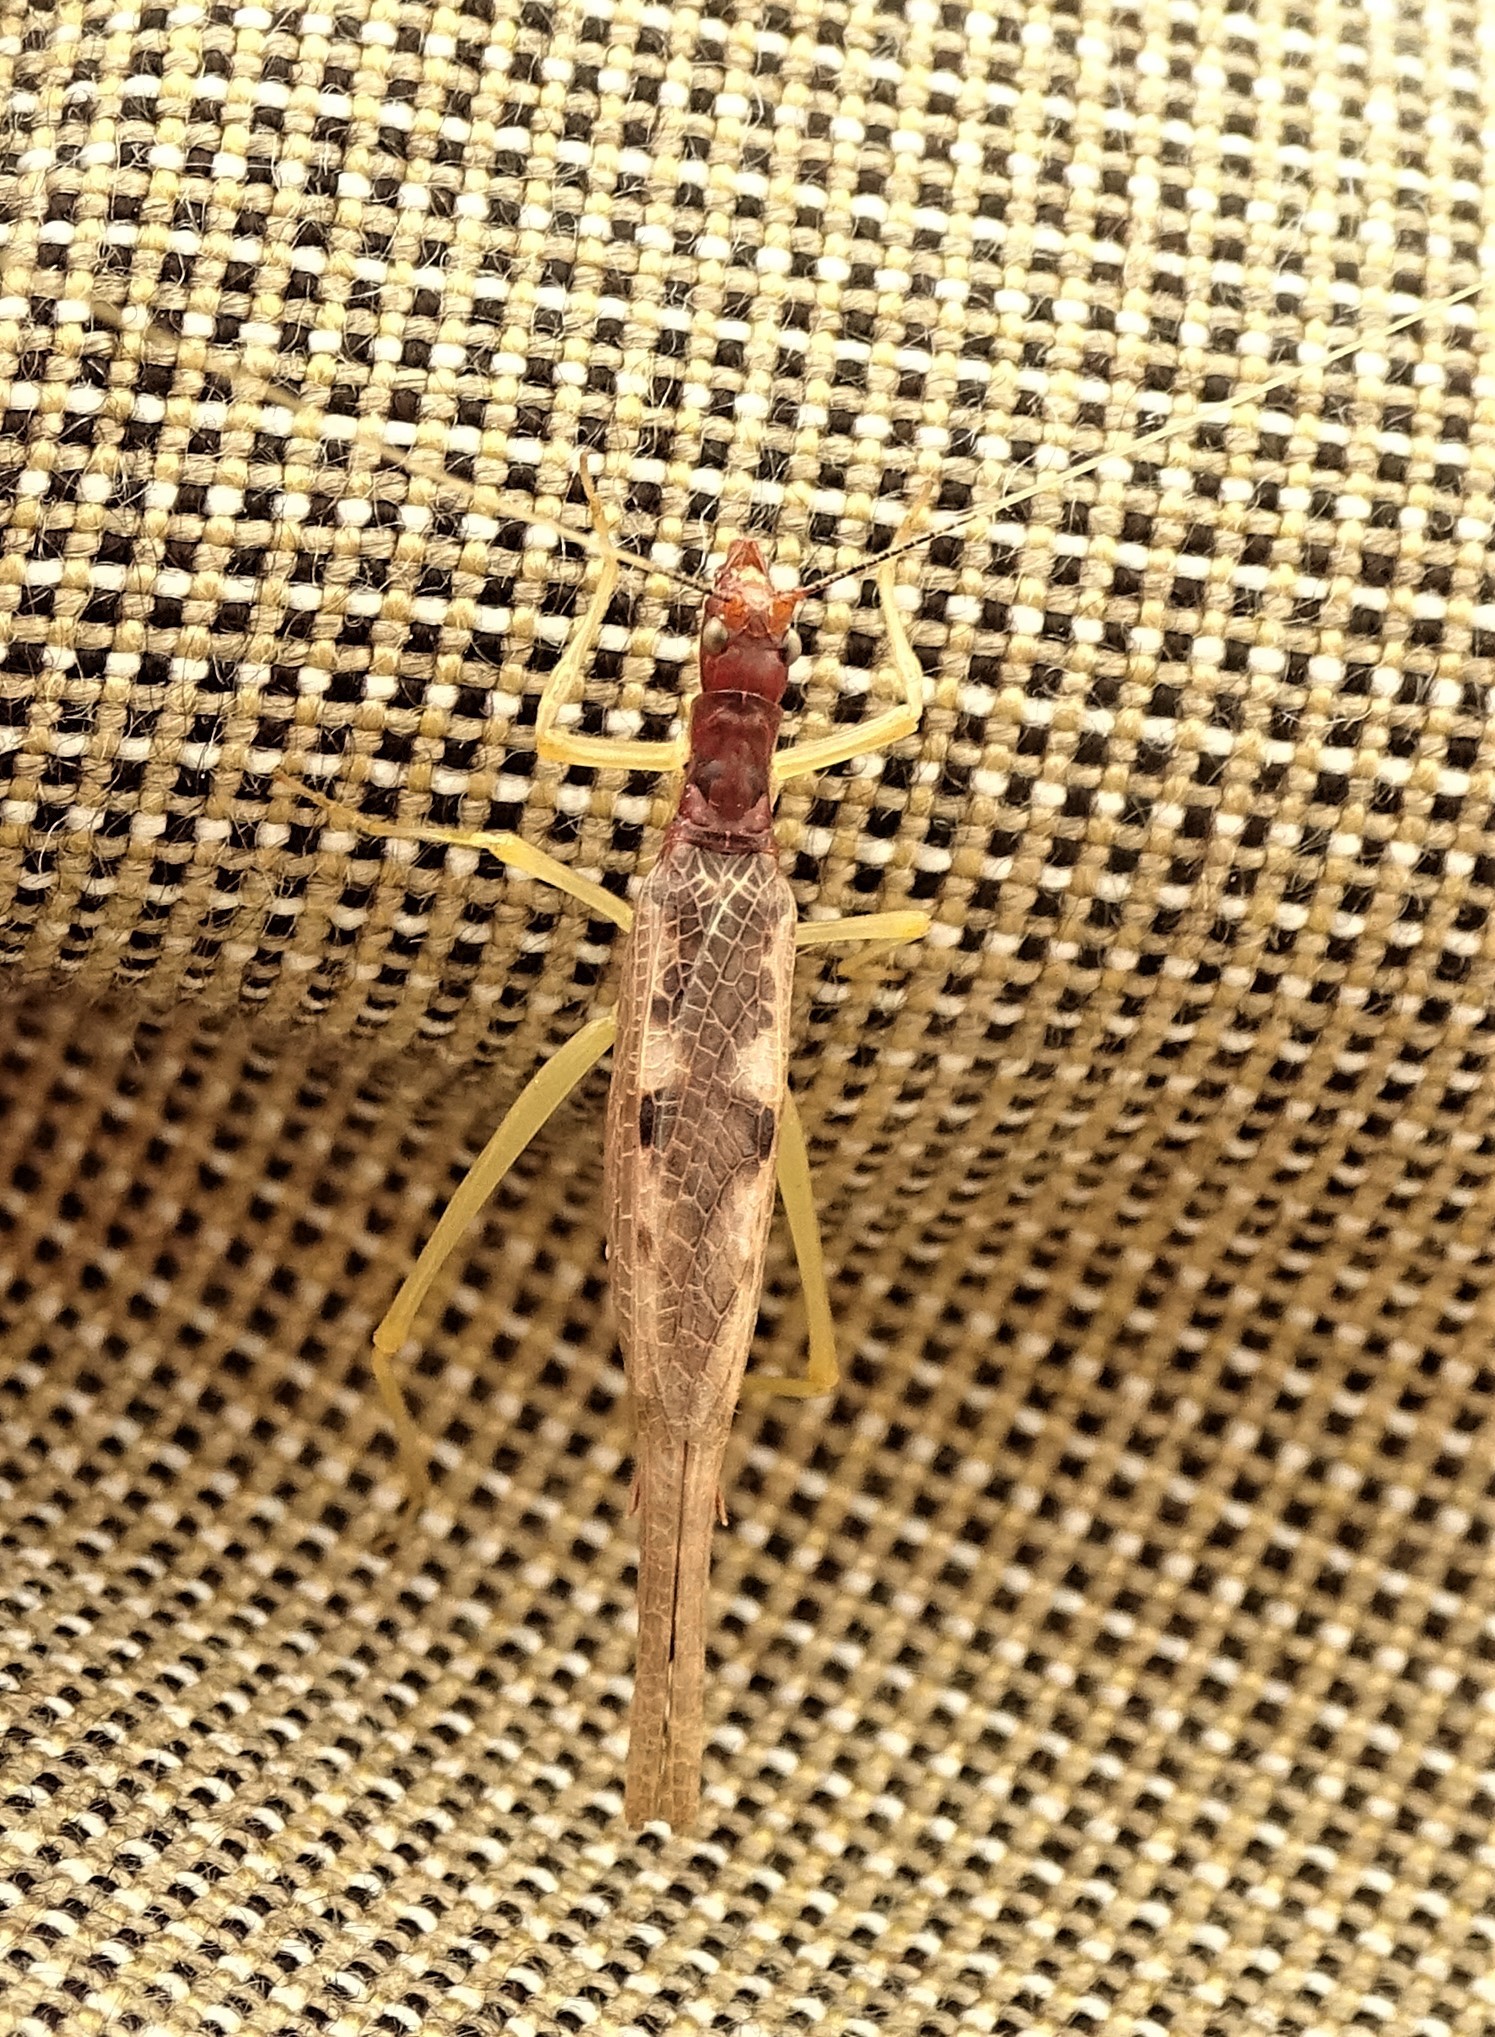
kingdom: Animalia
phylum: Arthropoda
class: Insecta
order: Orthoptera
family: Gryllidae
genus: Neoxabea
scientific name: Neoxabea bipunctata
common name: Two-spotted tree cricket
